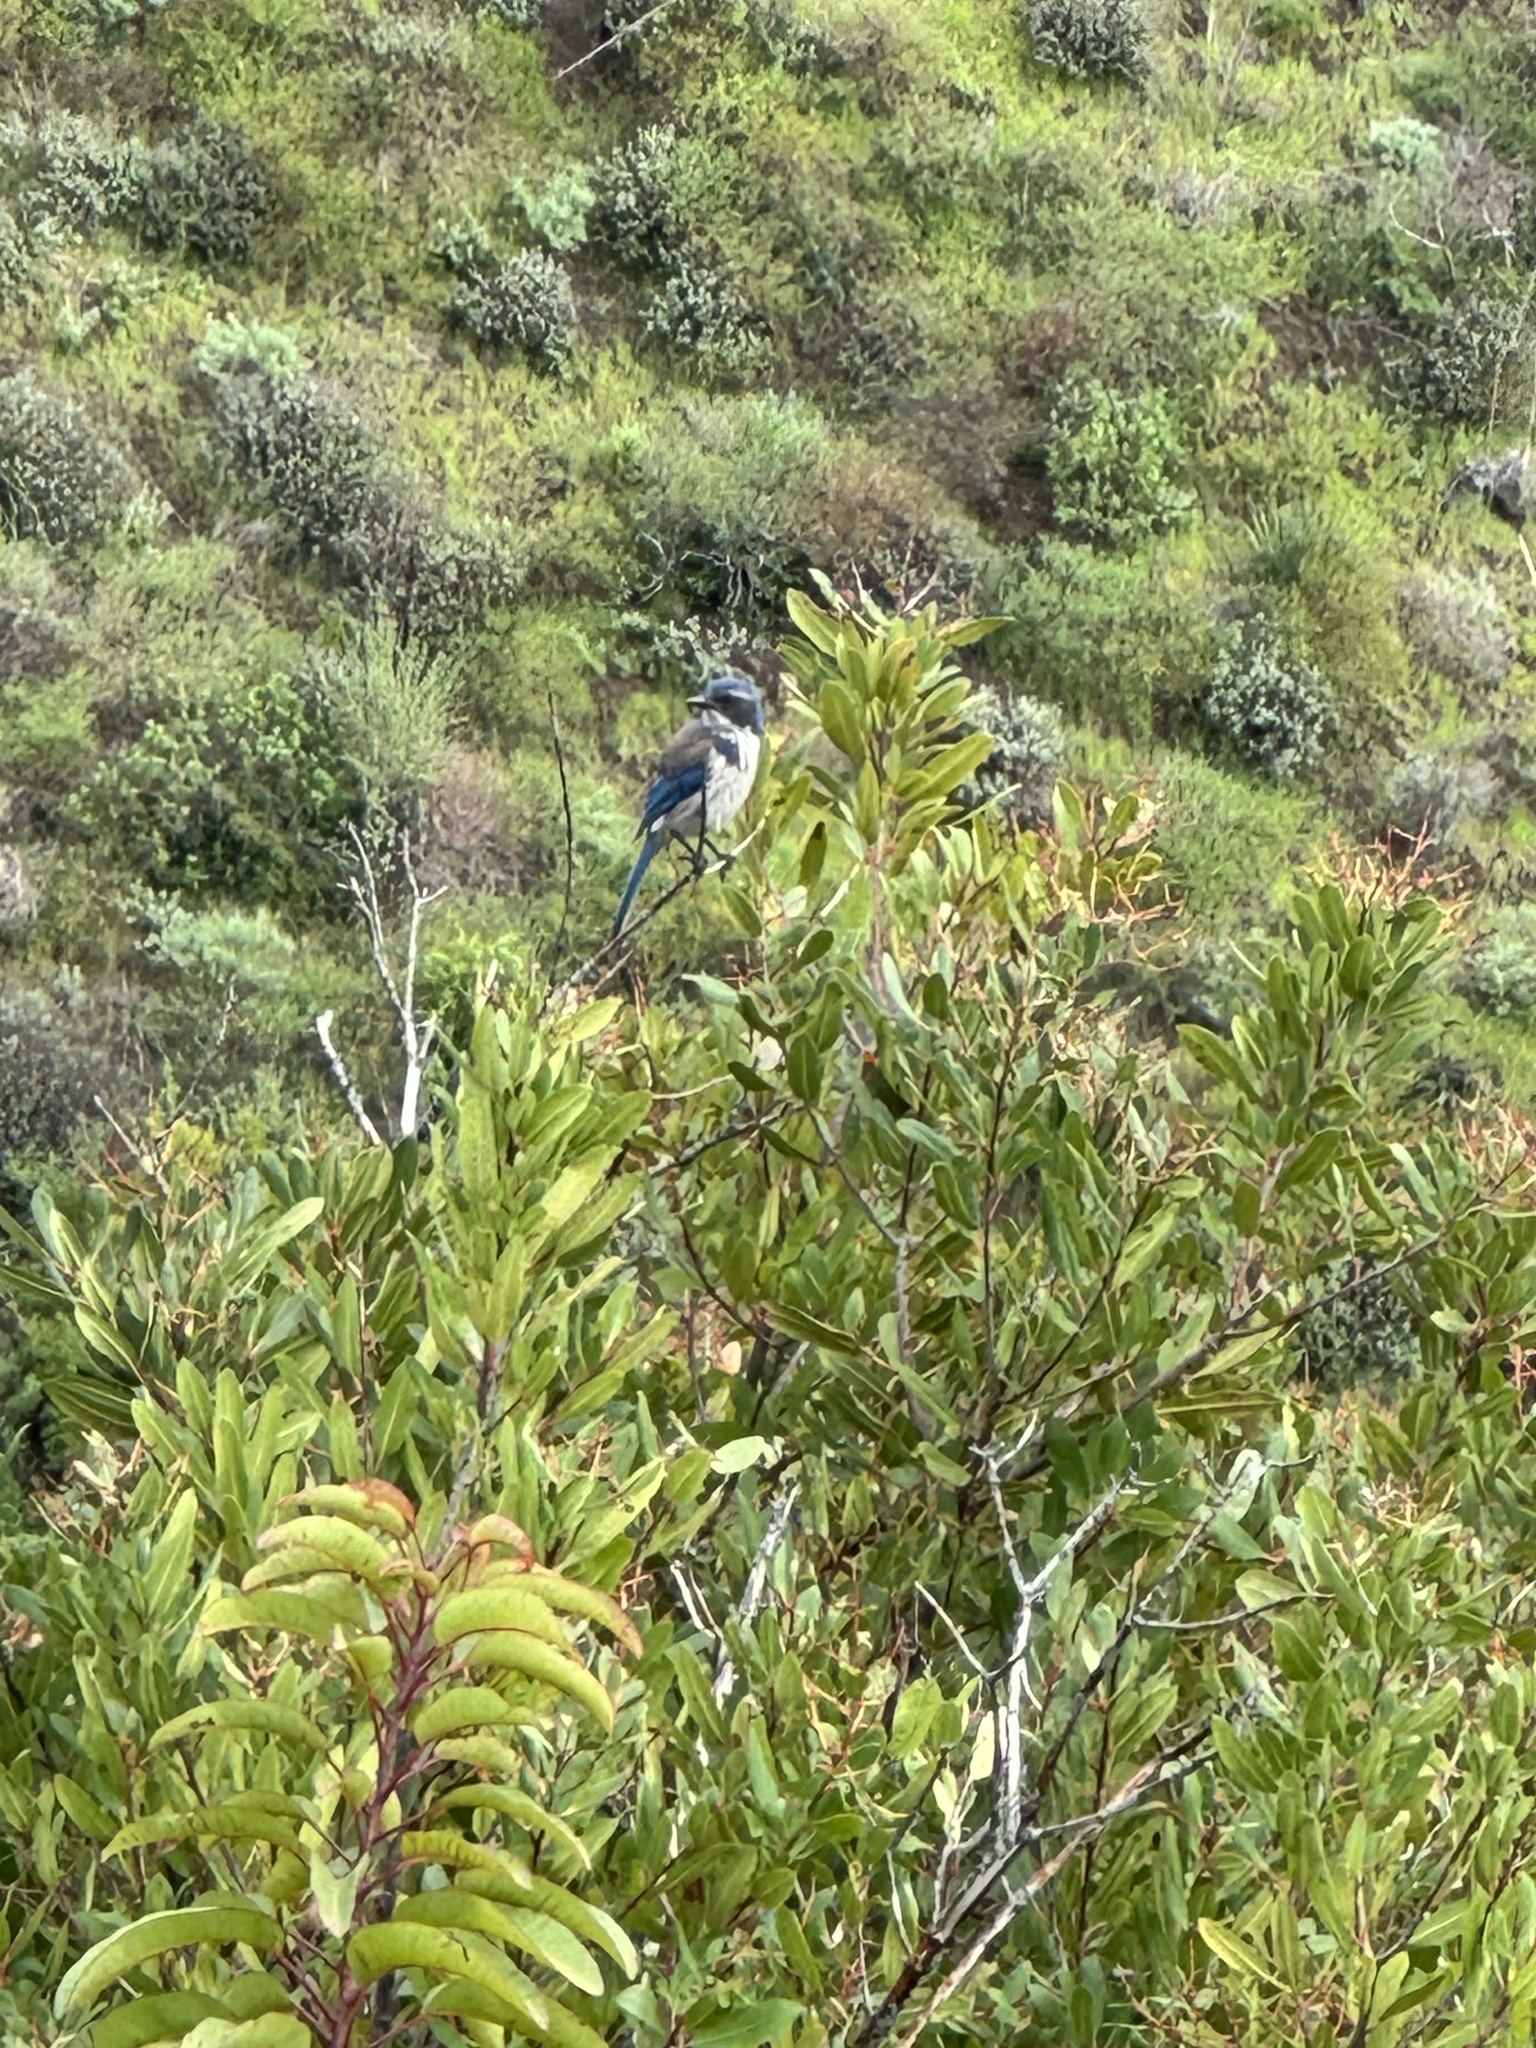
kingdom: Animalia
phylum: Chordata
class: Aves
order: Passeriformes
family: Corvidae
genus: Aphelocoma
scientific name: Aphelocoma californica
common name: California scrub-jay
